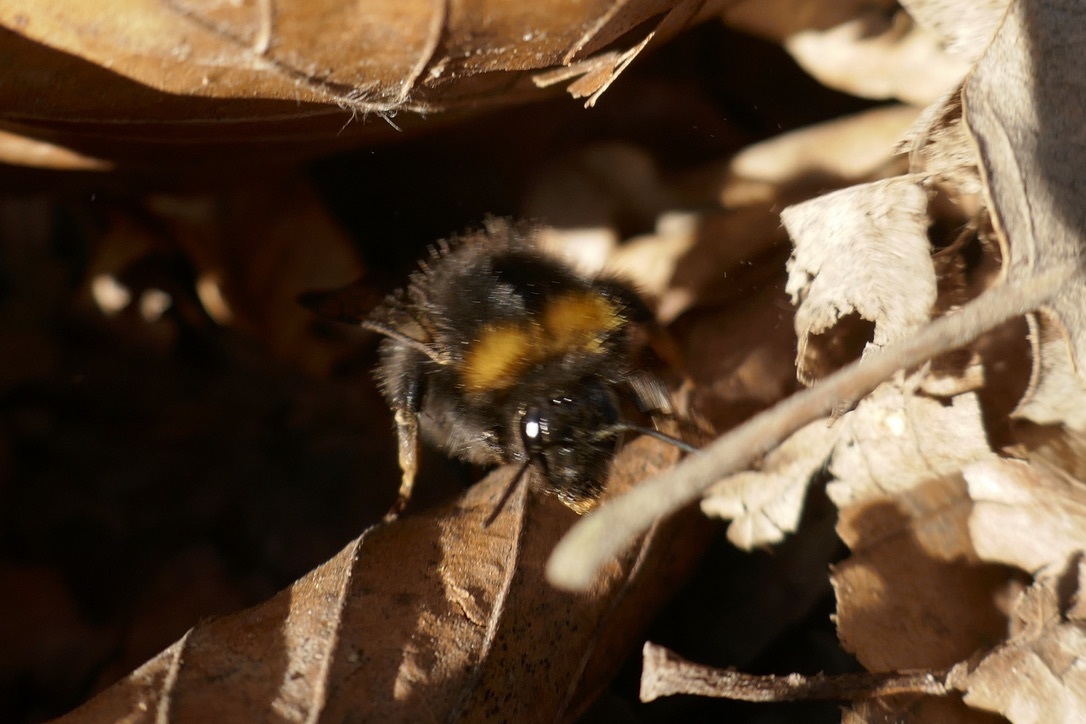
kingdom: Animalia
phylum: Arthropoda
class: Insecta
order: Hymenoptera
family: Apidae
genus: Bombus
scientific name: Bombus pratorum
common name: Early humble-bee
